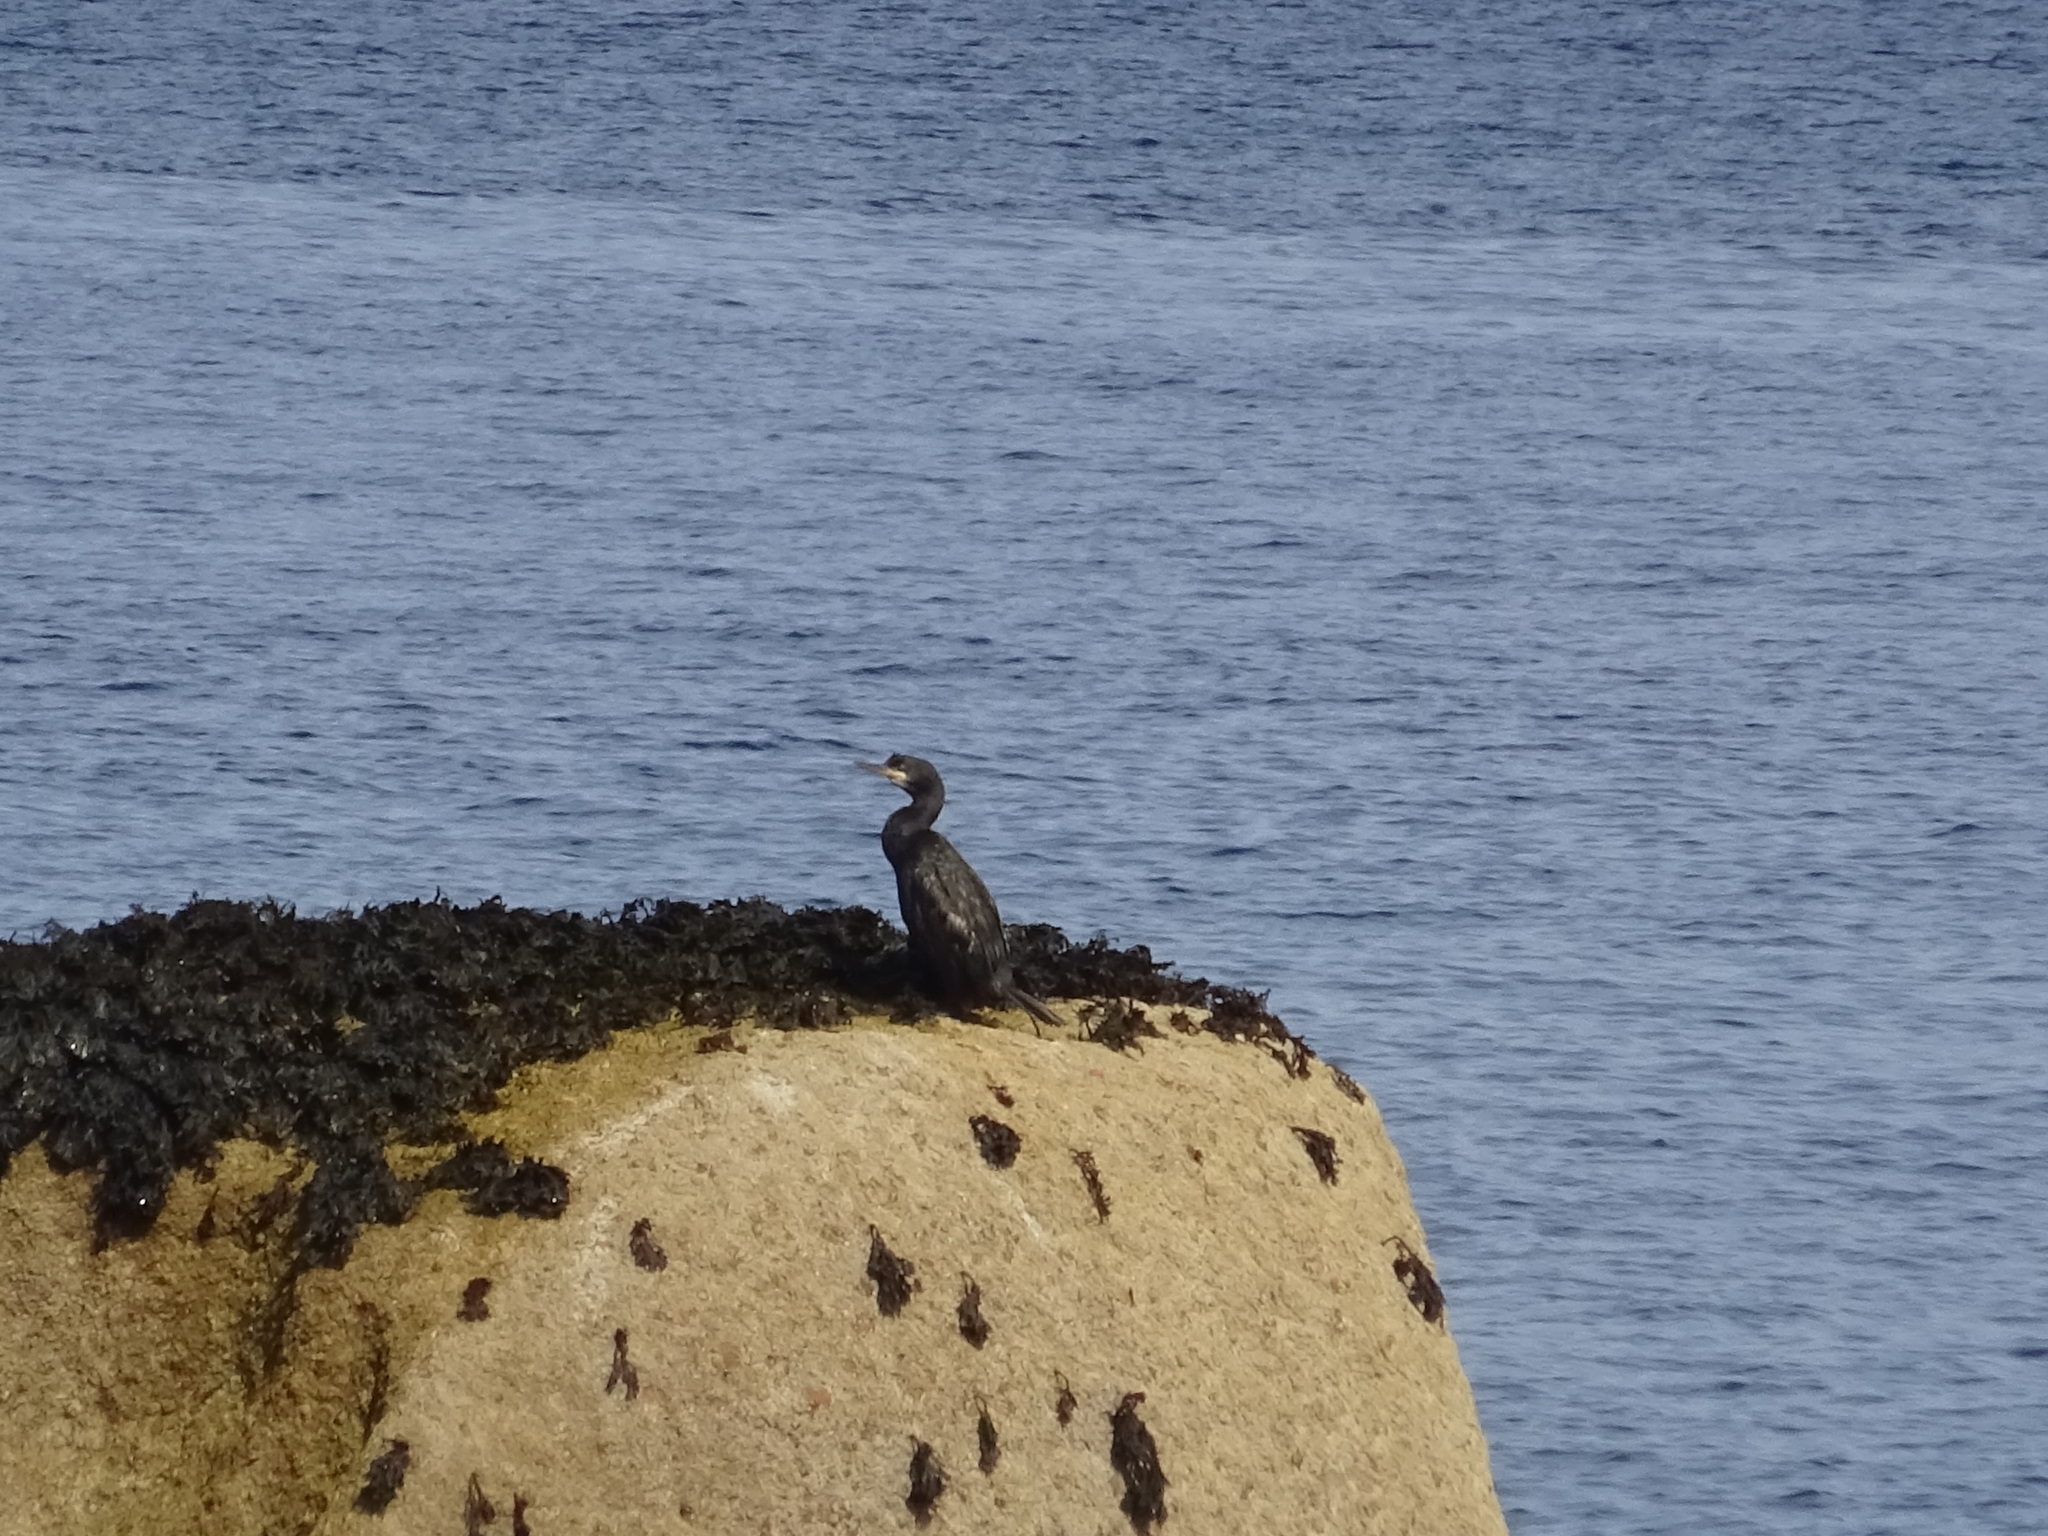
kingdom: Animalia
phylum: Chordata
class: Aves
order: Suliformes
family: Phalacrocoracidae
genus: Phalacrocorax
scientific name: Phalacrocorax aristotelis
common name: European shag
